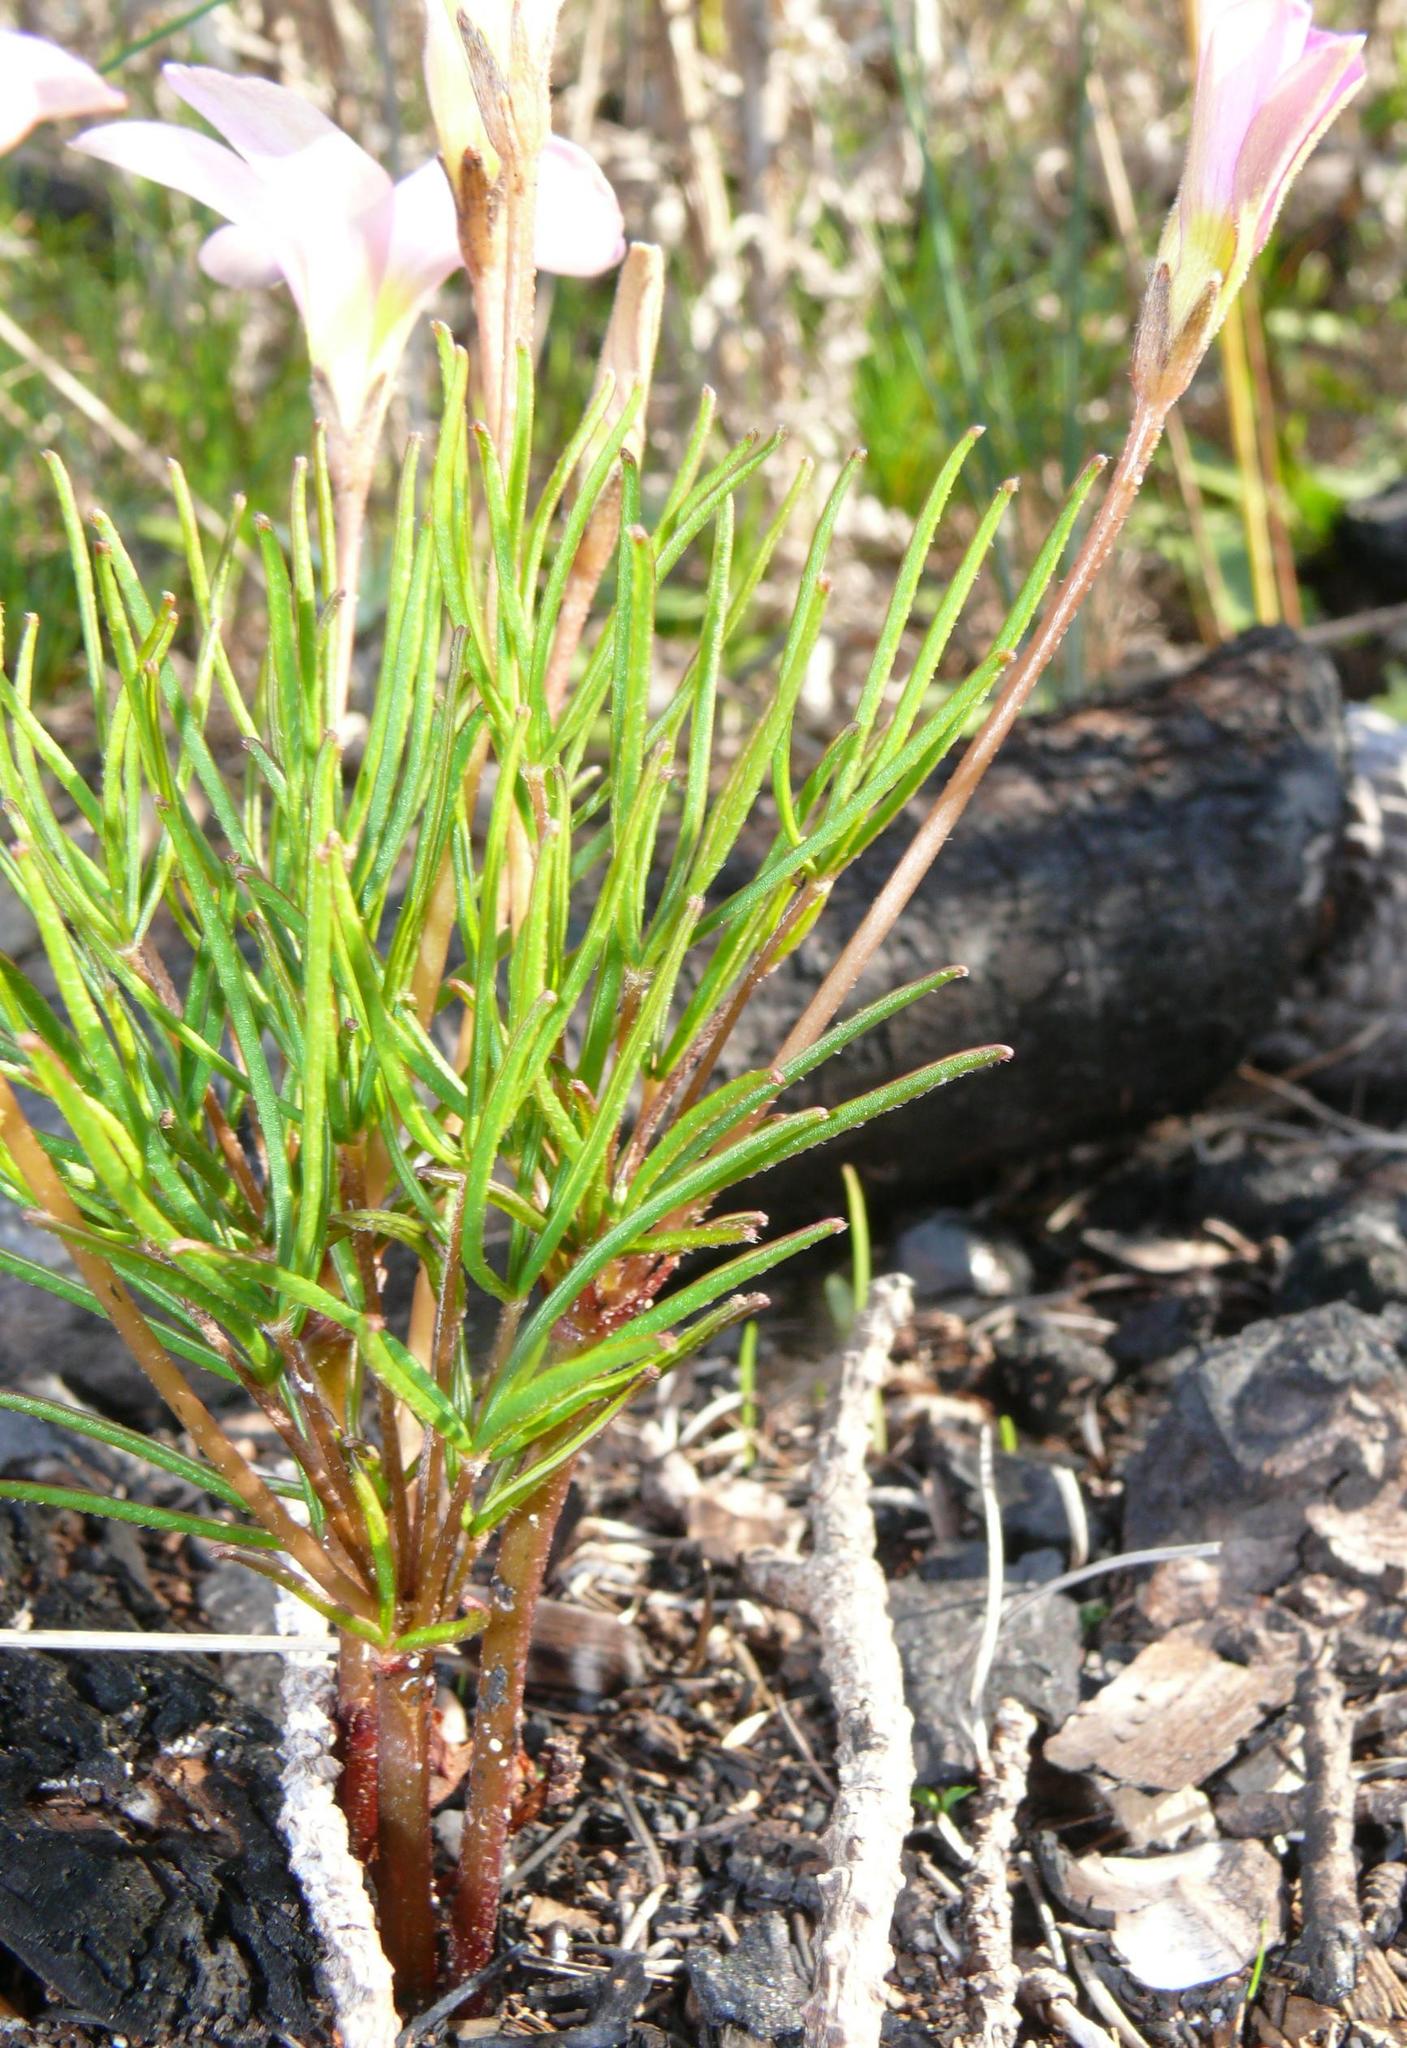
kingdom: Plantae
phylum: Tracheophyta
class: Magnoliopsida
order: Oxalidales
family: Oxalidaceae
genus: Oxalis
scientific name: Oxalis polyphylla
